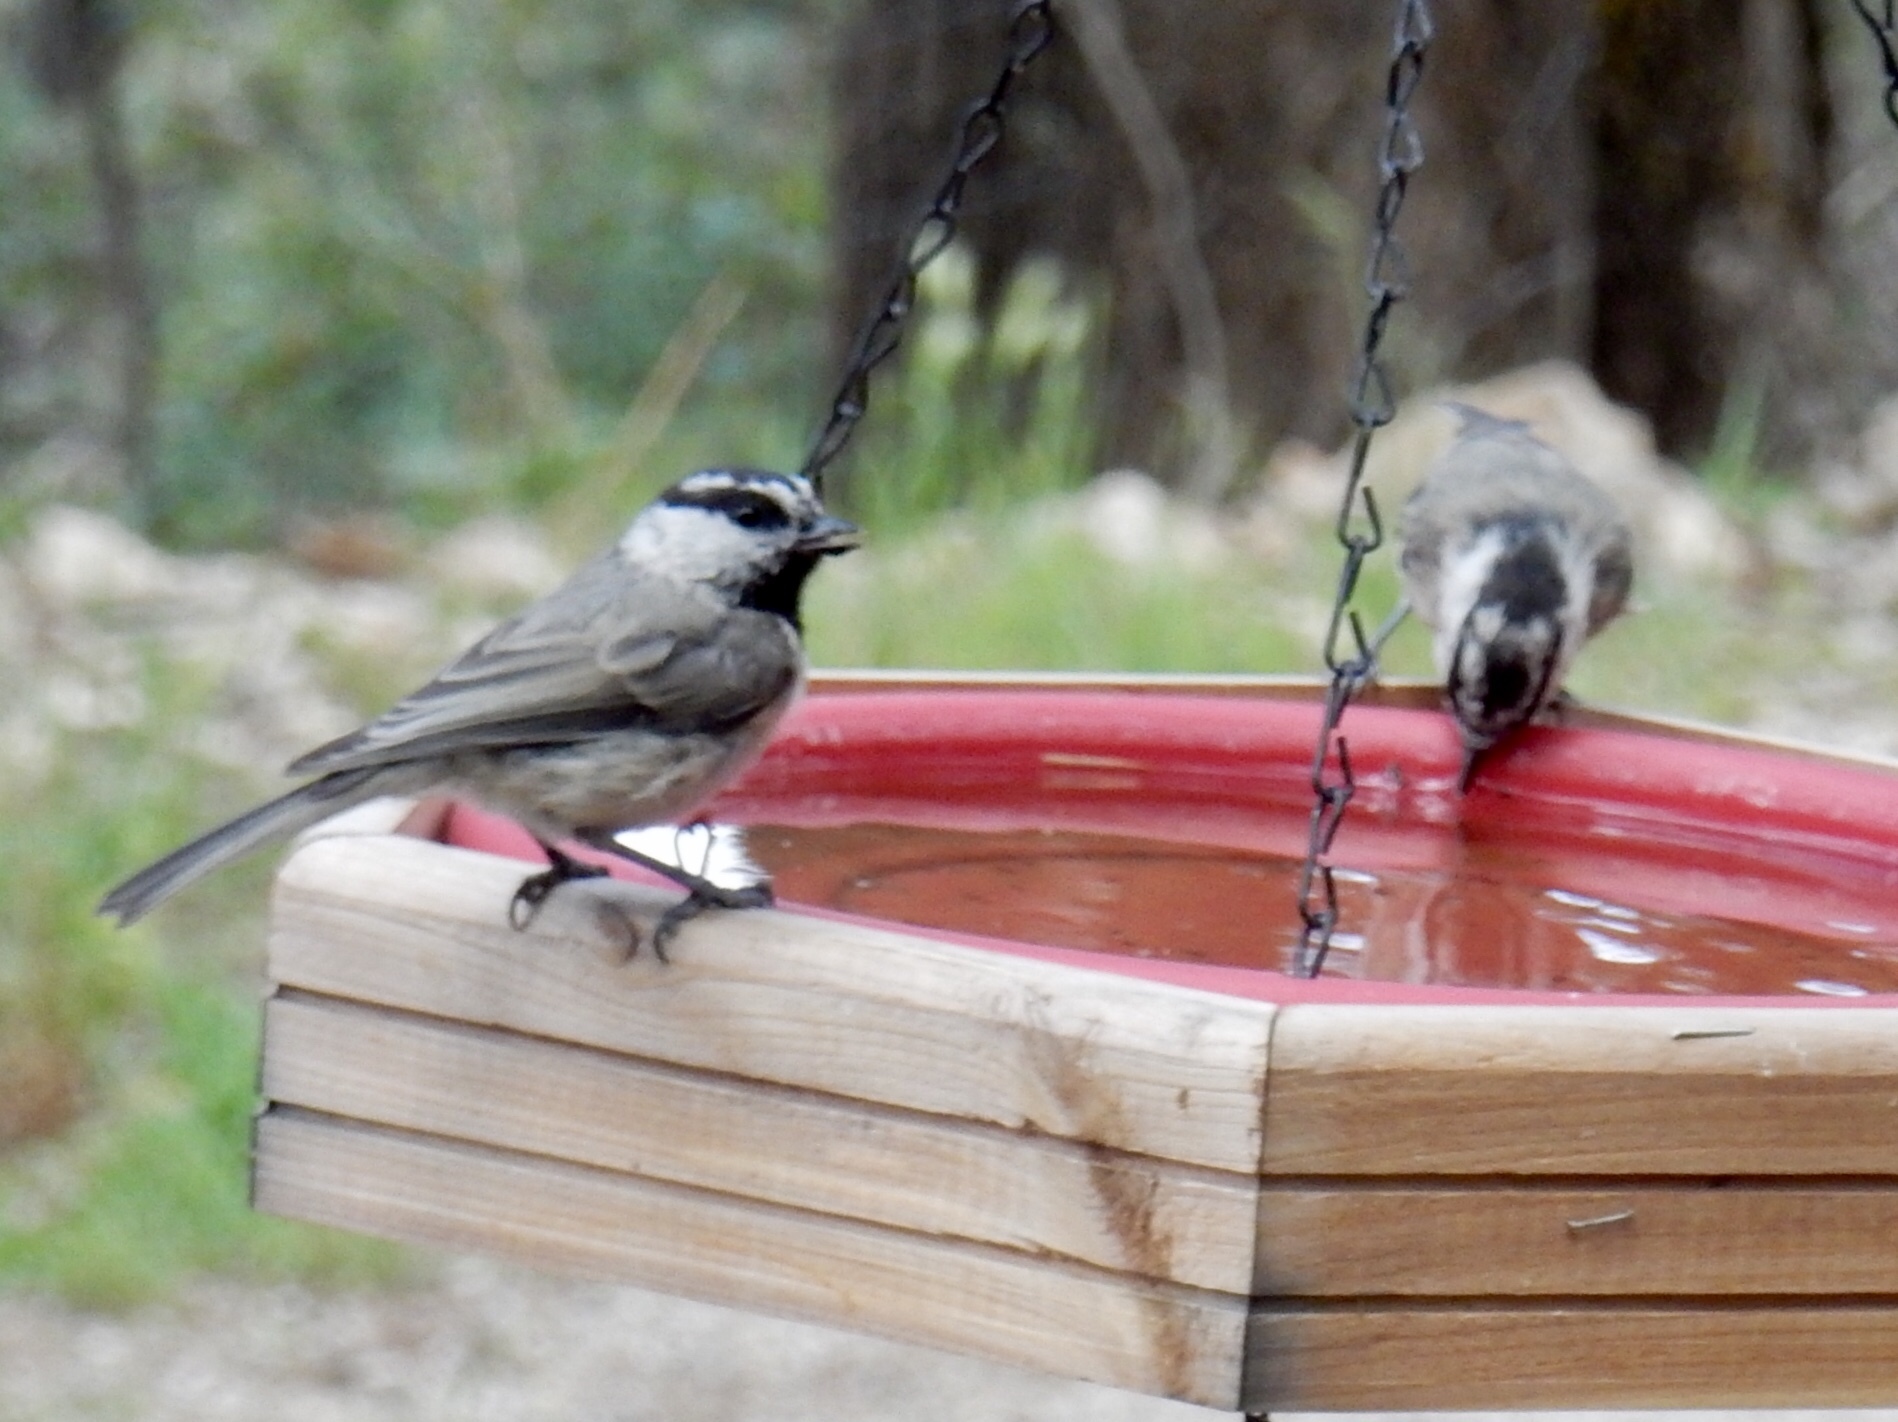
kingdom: Animalia
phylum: Chordata
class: Aves
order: Passeriformes
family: Paridae
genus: Poecile
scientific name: Poecile gambeli
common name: Mountain chickadee
